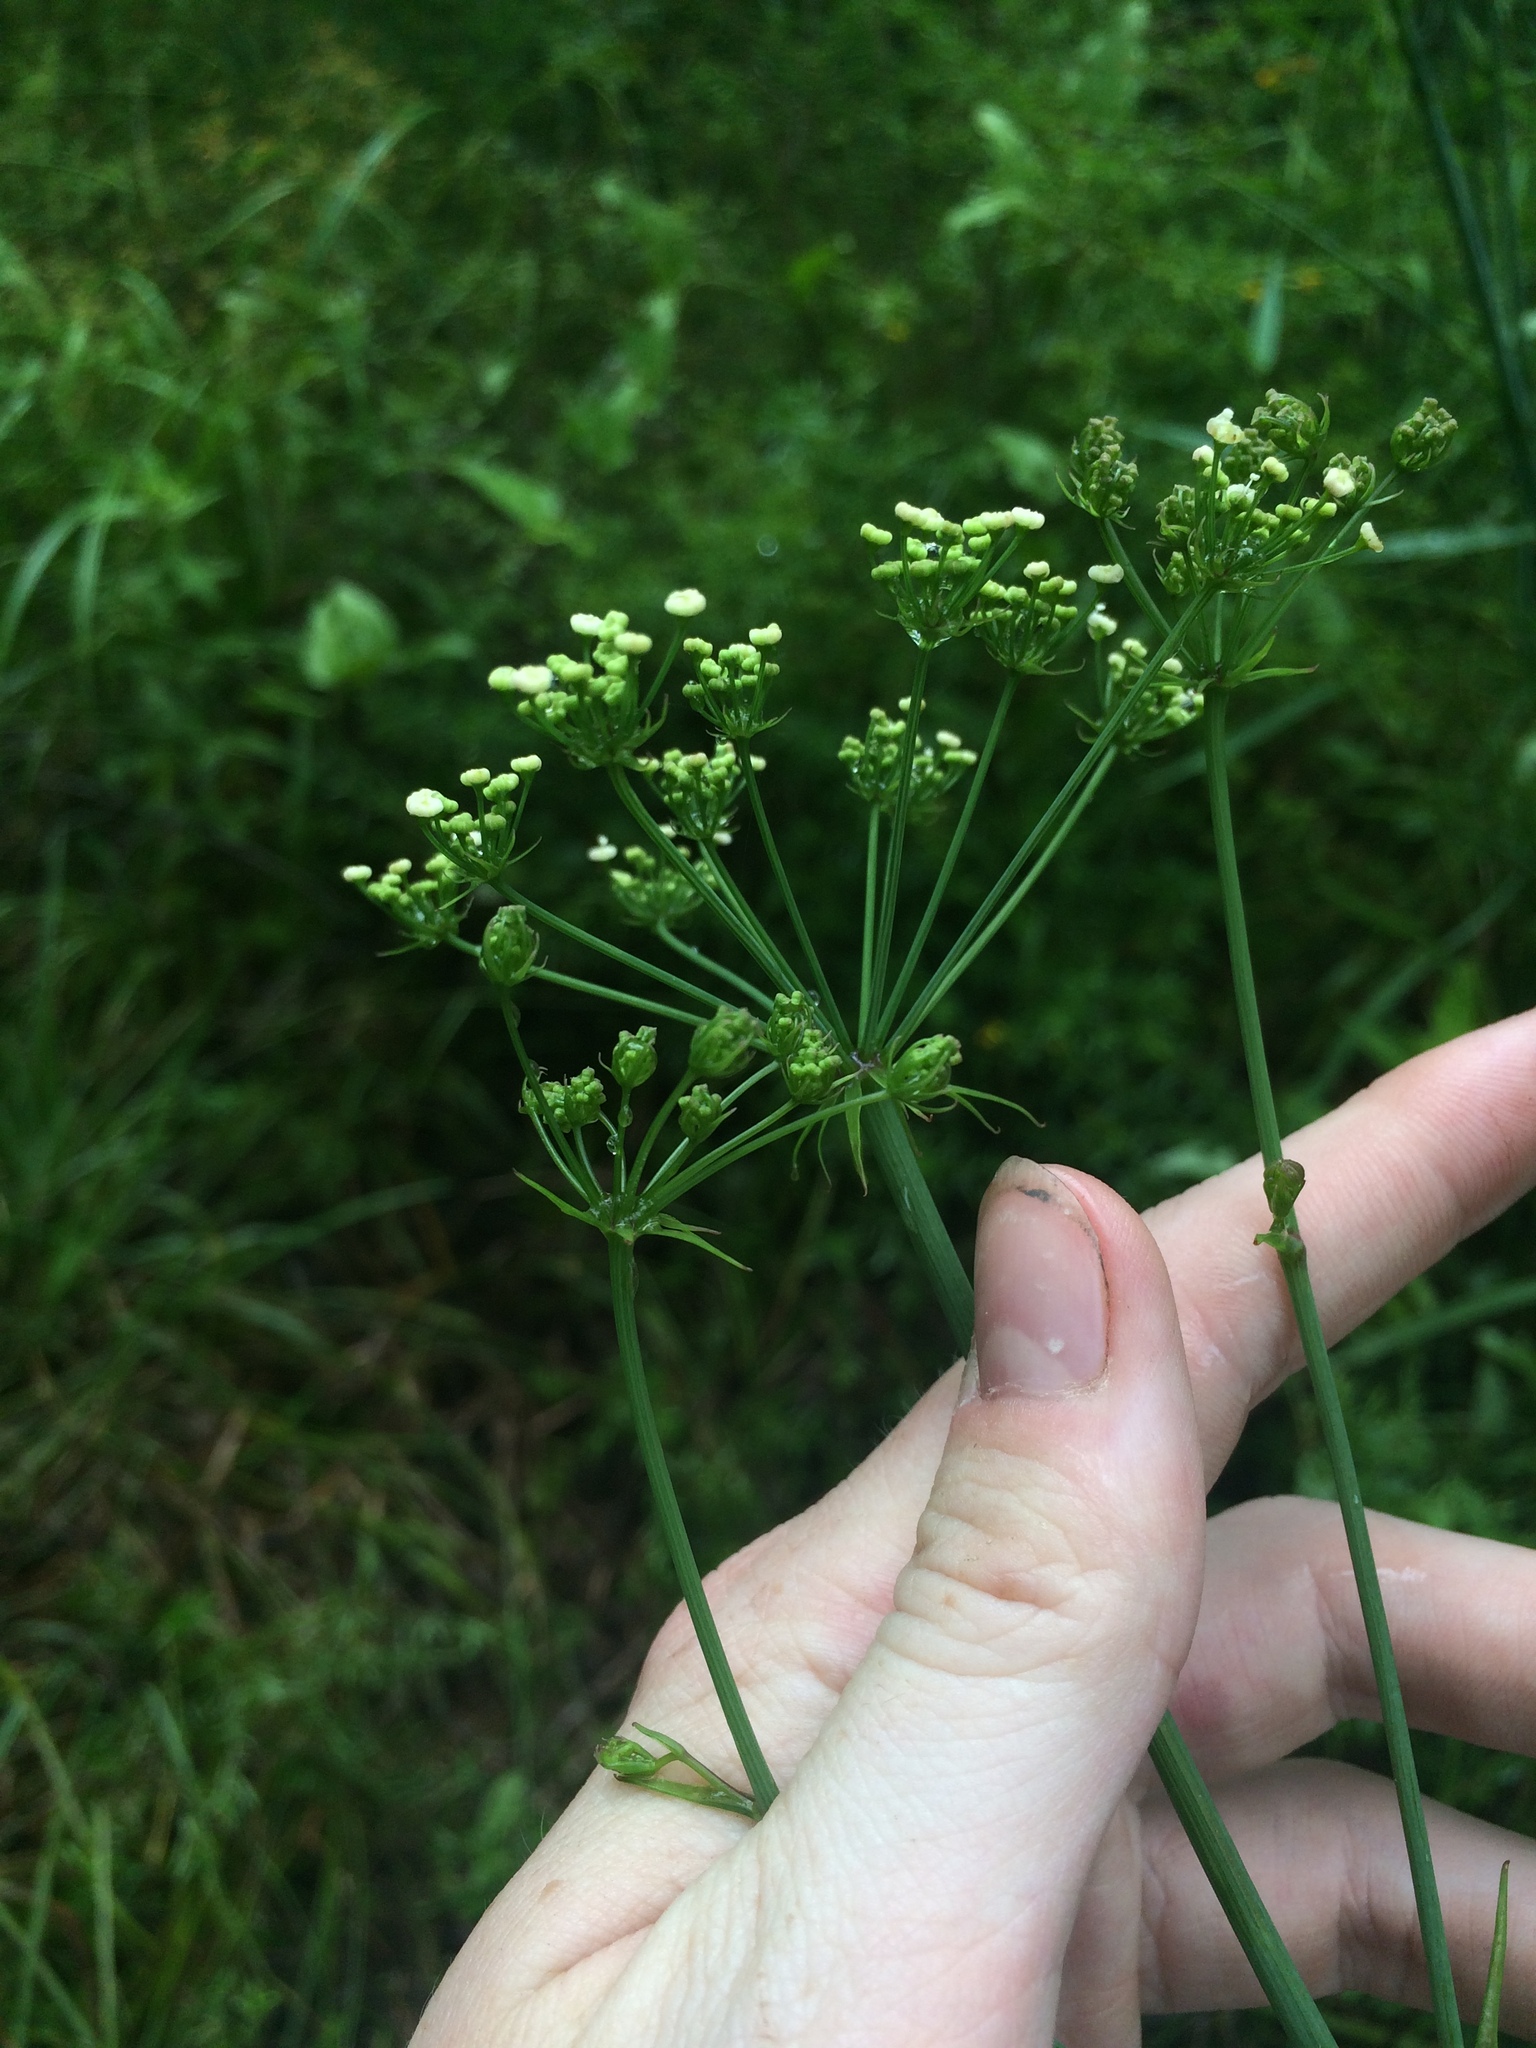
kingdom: Plantae
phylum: Tracheophyta
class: Magnoliopsida
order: Apiales
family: Apiaceae
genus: Tiedemannia
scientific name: Tiedemannia filiformis
